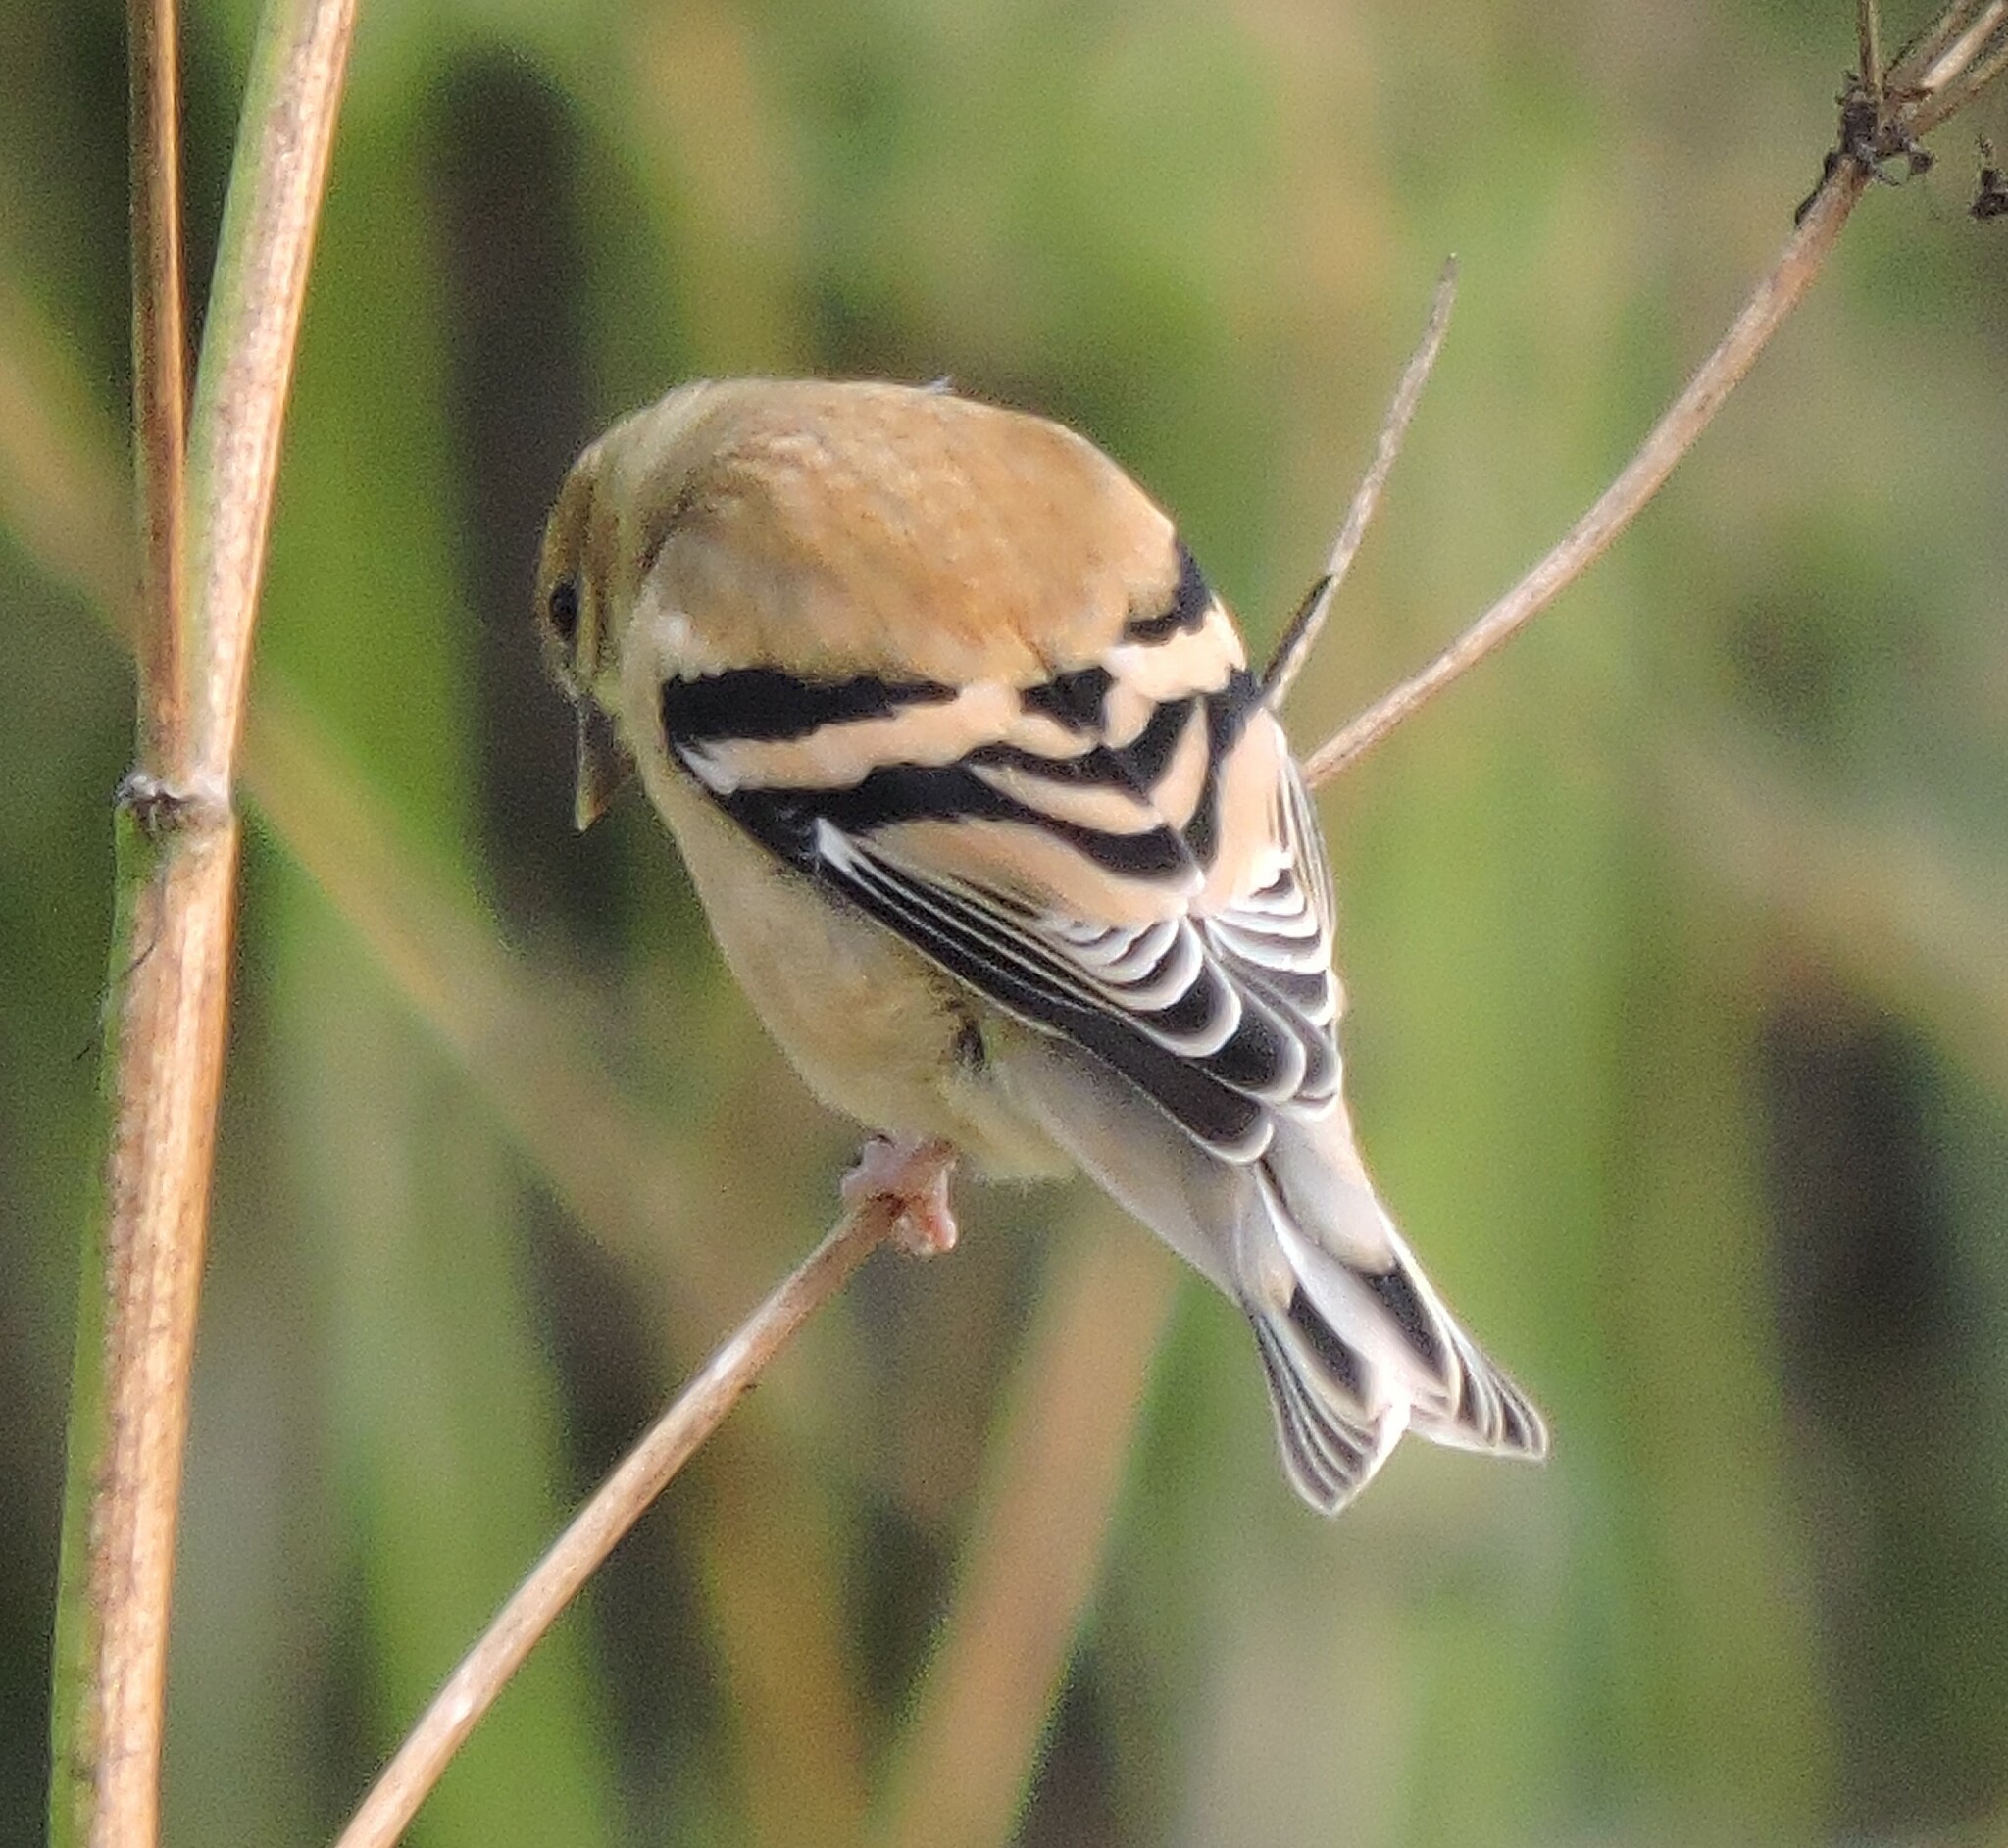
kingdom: Animalia
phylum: Chordata
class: Aves
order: Passeriformes
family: Fringillidae
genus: Spinus
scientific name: Spinus tristis
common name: American goldfinch
